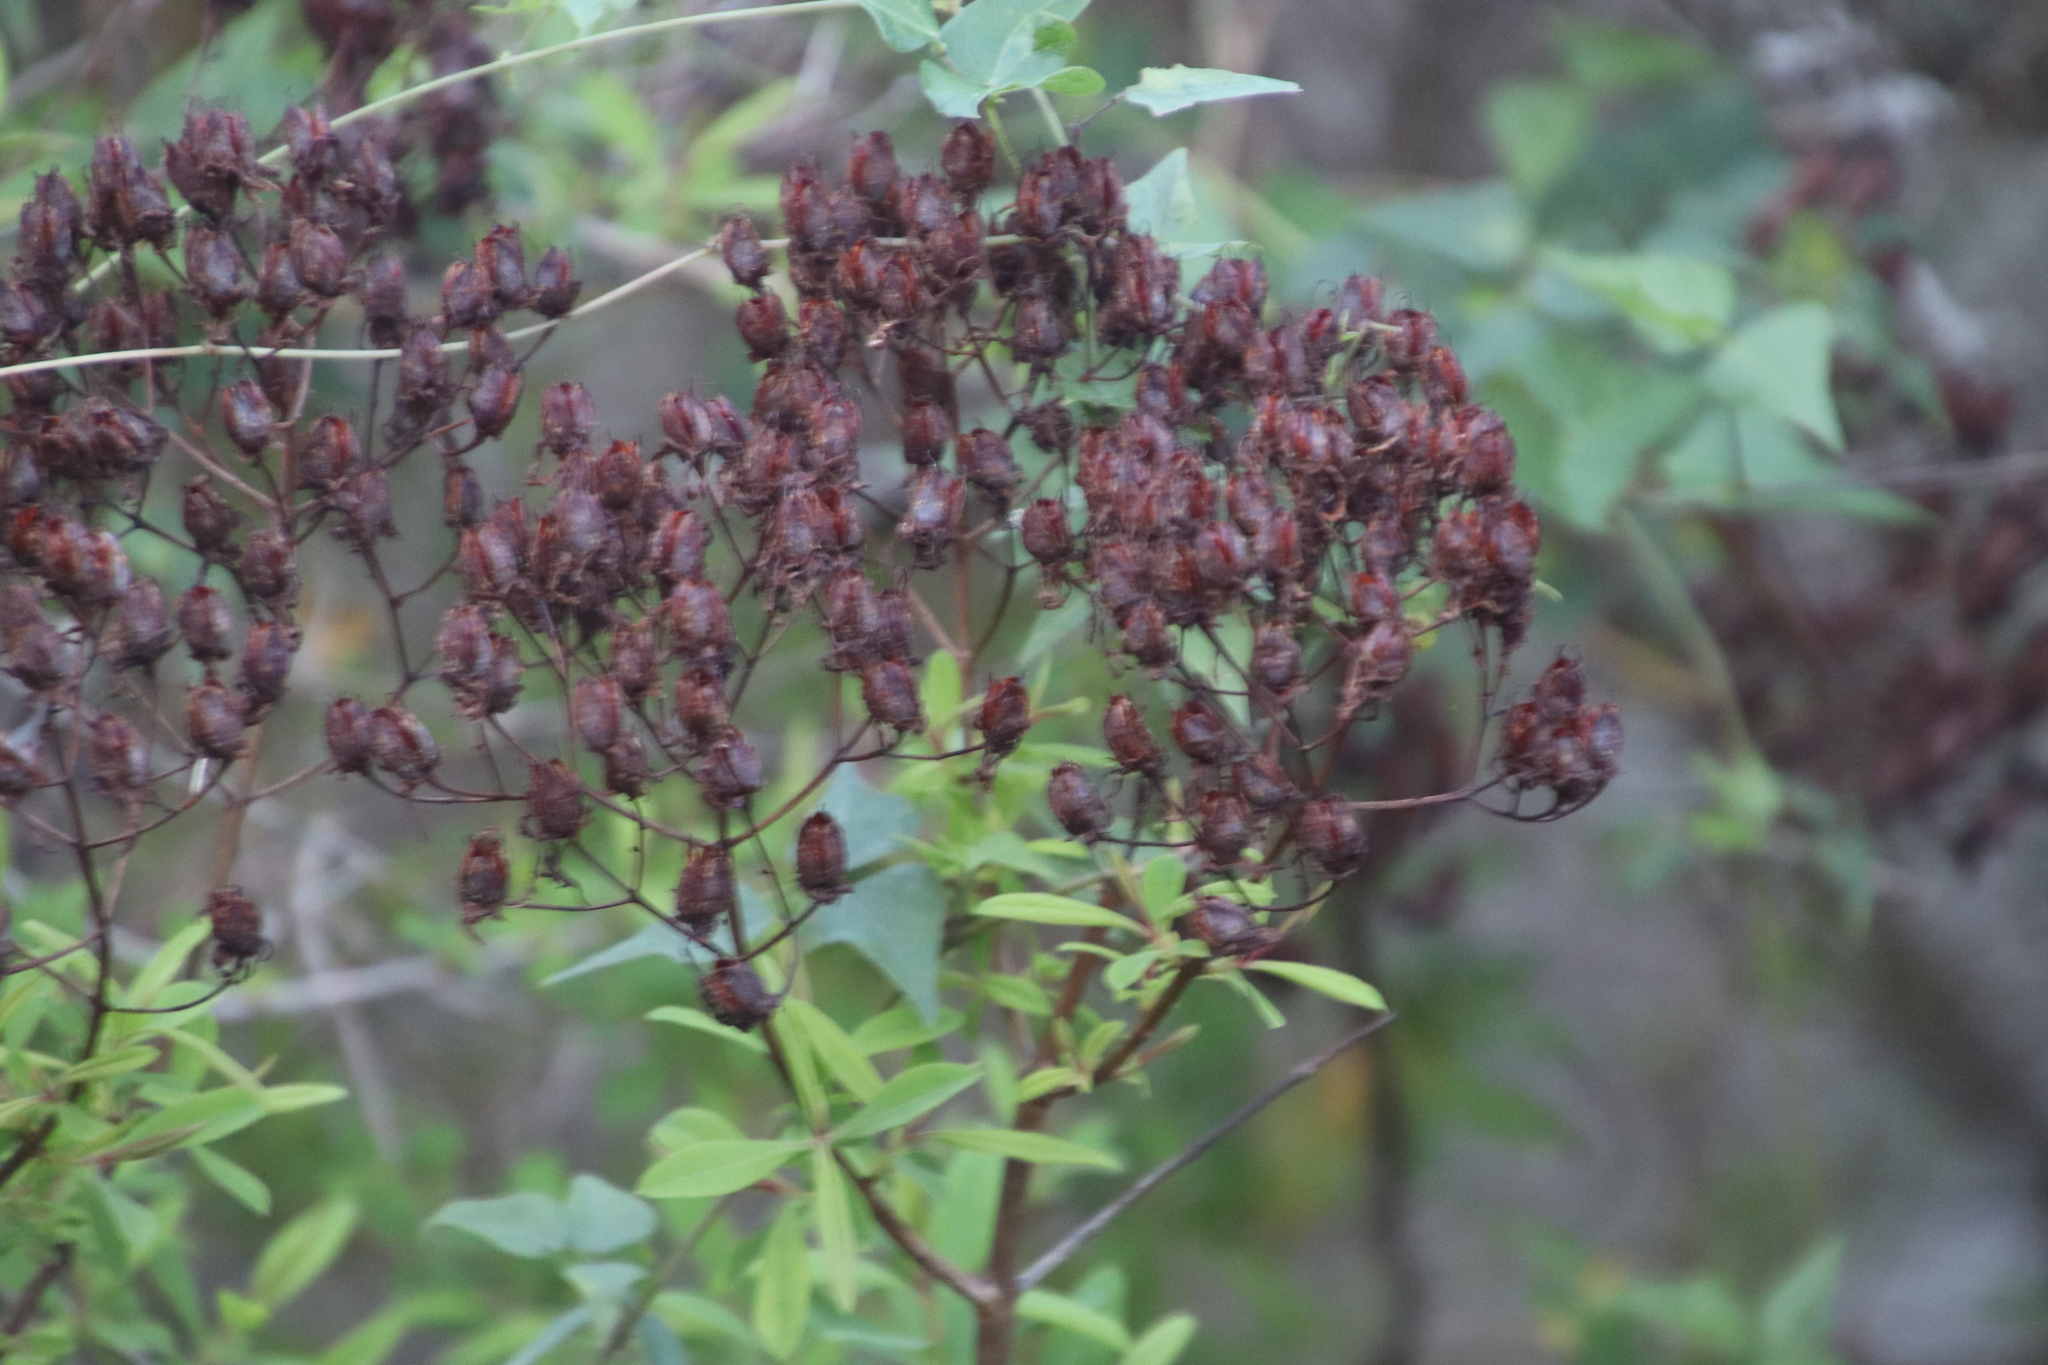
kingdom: Plantae
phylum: Tracheophyta
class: Magnoliopsida
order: Malpighiales
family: Hypericaceae
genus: Hypericum
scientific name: Hypericum canariense
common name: Canary island st. johnswort
